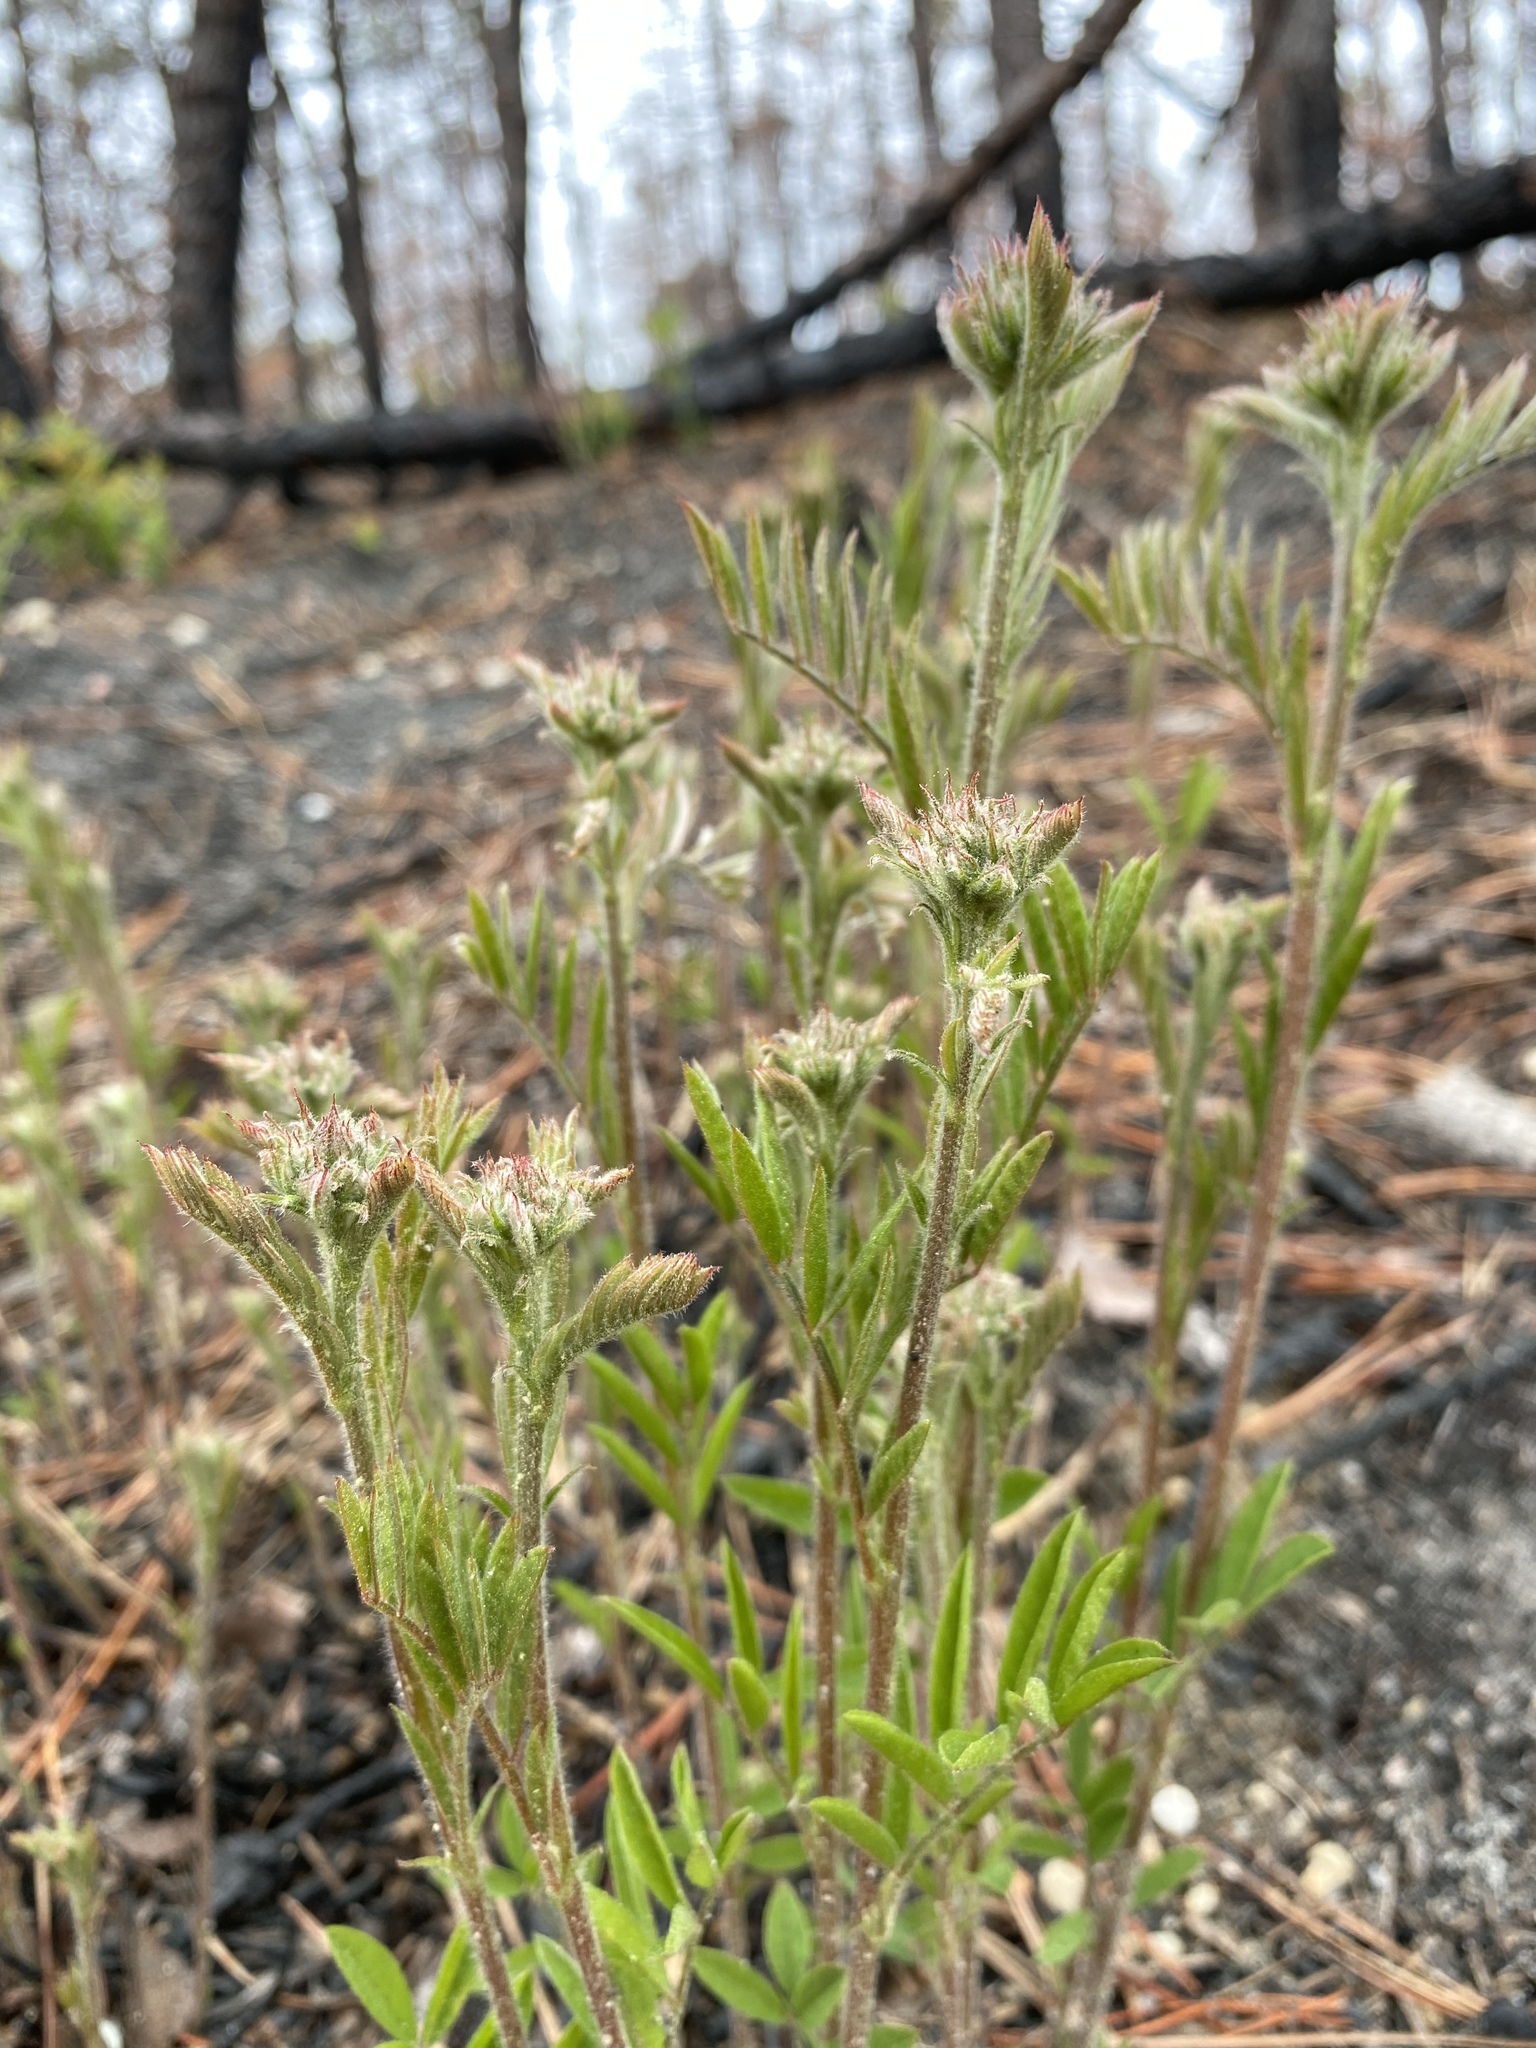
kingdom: Plantae
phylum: Tracheophyta
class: Magnoliopsida
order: Fabales
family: Fabaceae
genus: Tephrosia
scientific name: Tephrosia virginiana
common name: Rabbit-pea
